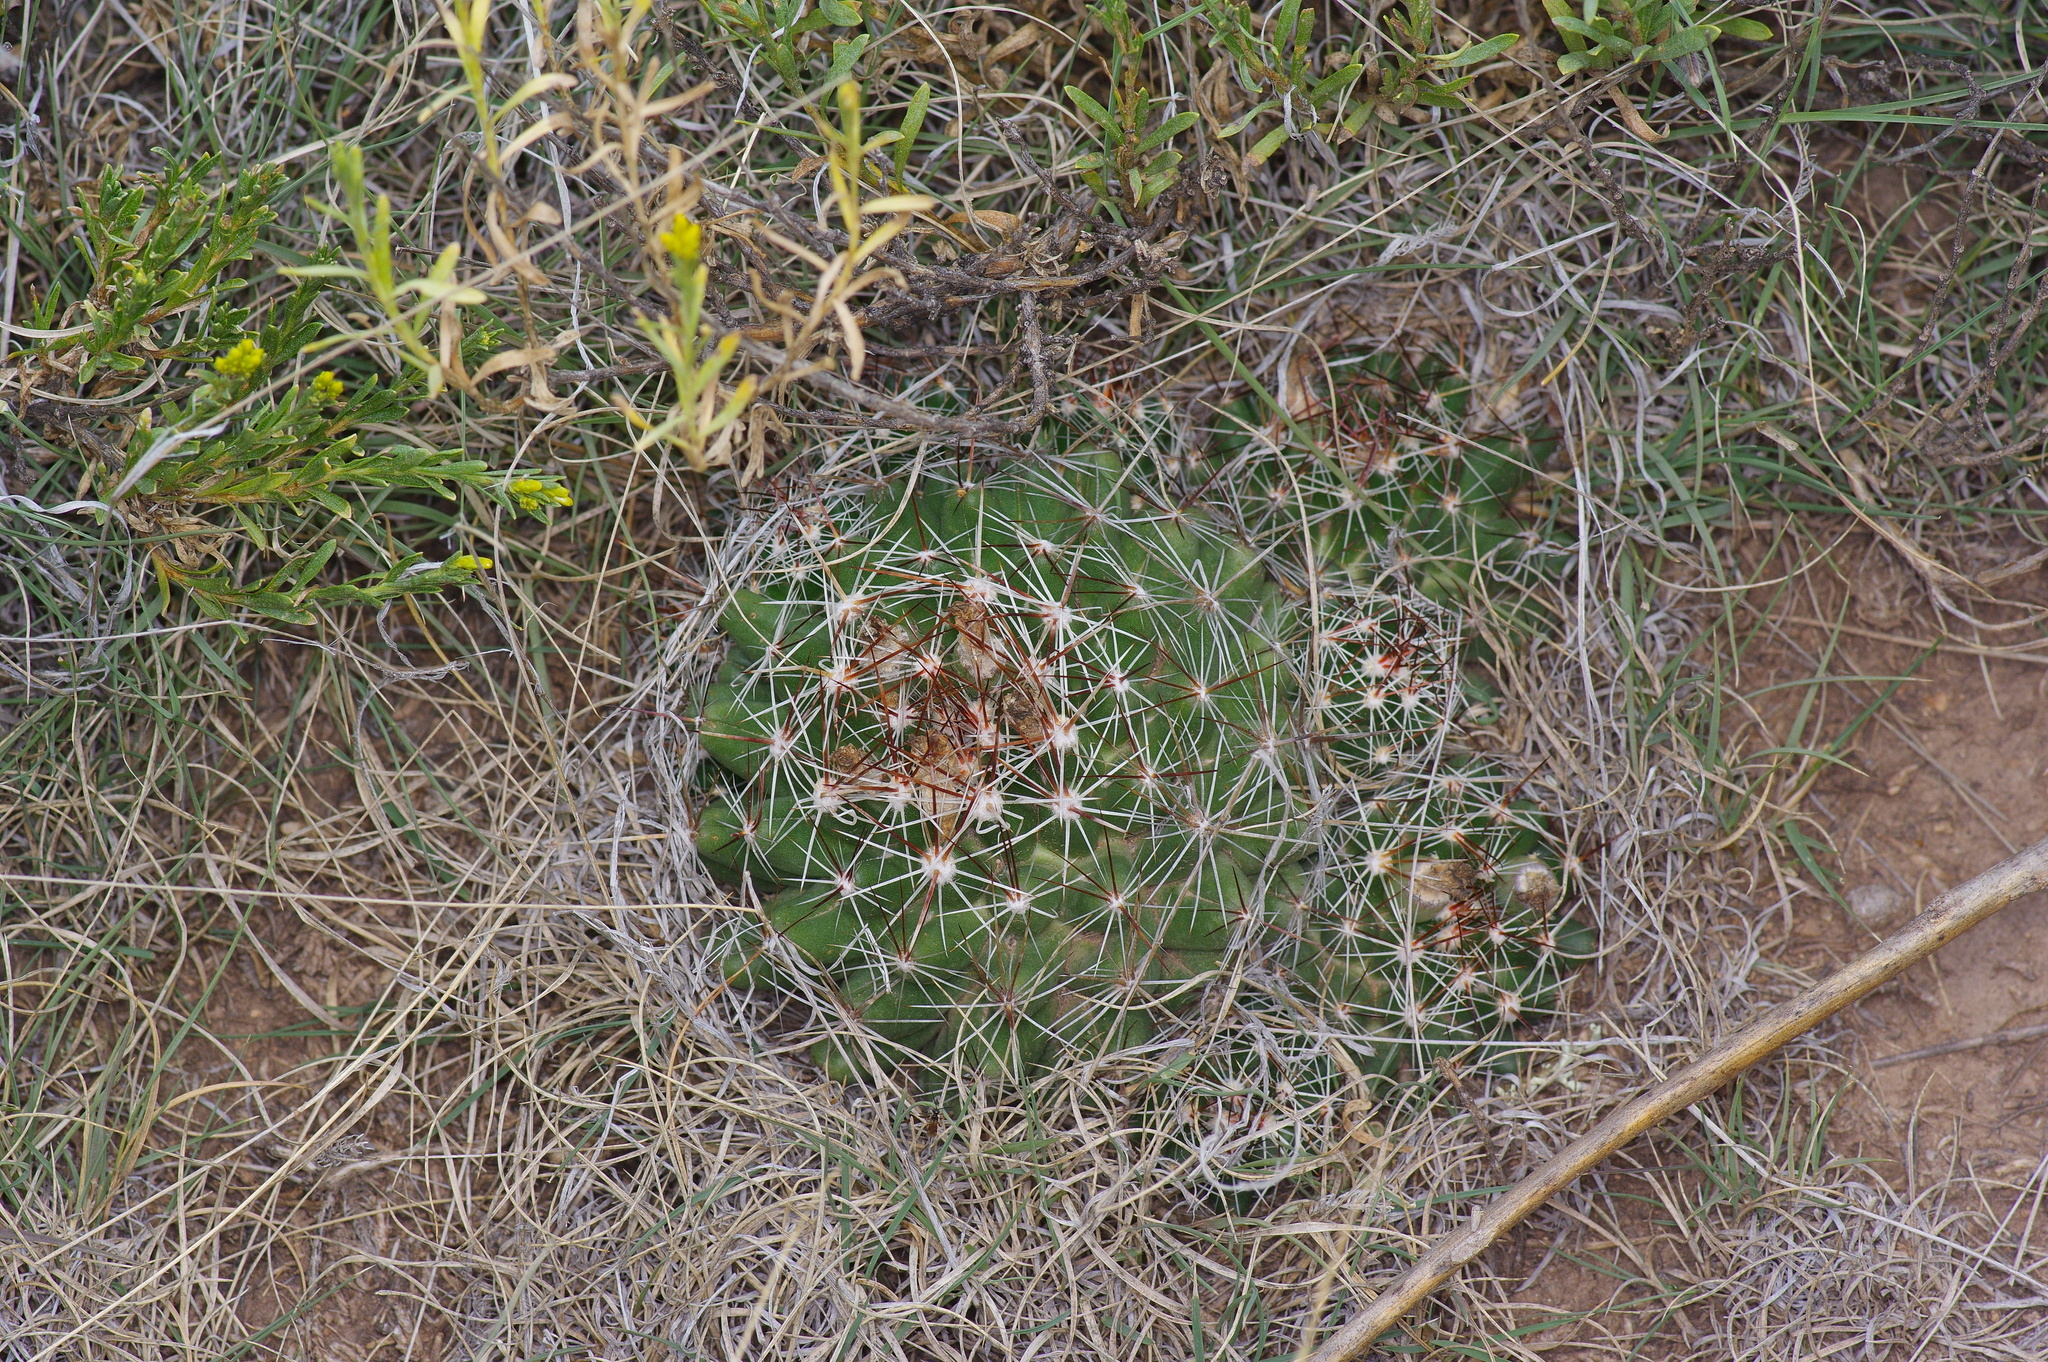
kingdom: Plantae
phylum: Tracheophyta
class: Magnoliopsida
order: Caryophyllales
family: Cactaceae
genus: Pelecyphora
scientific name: Pelecyphora vivipara
